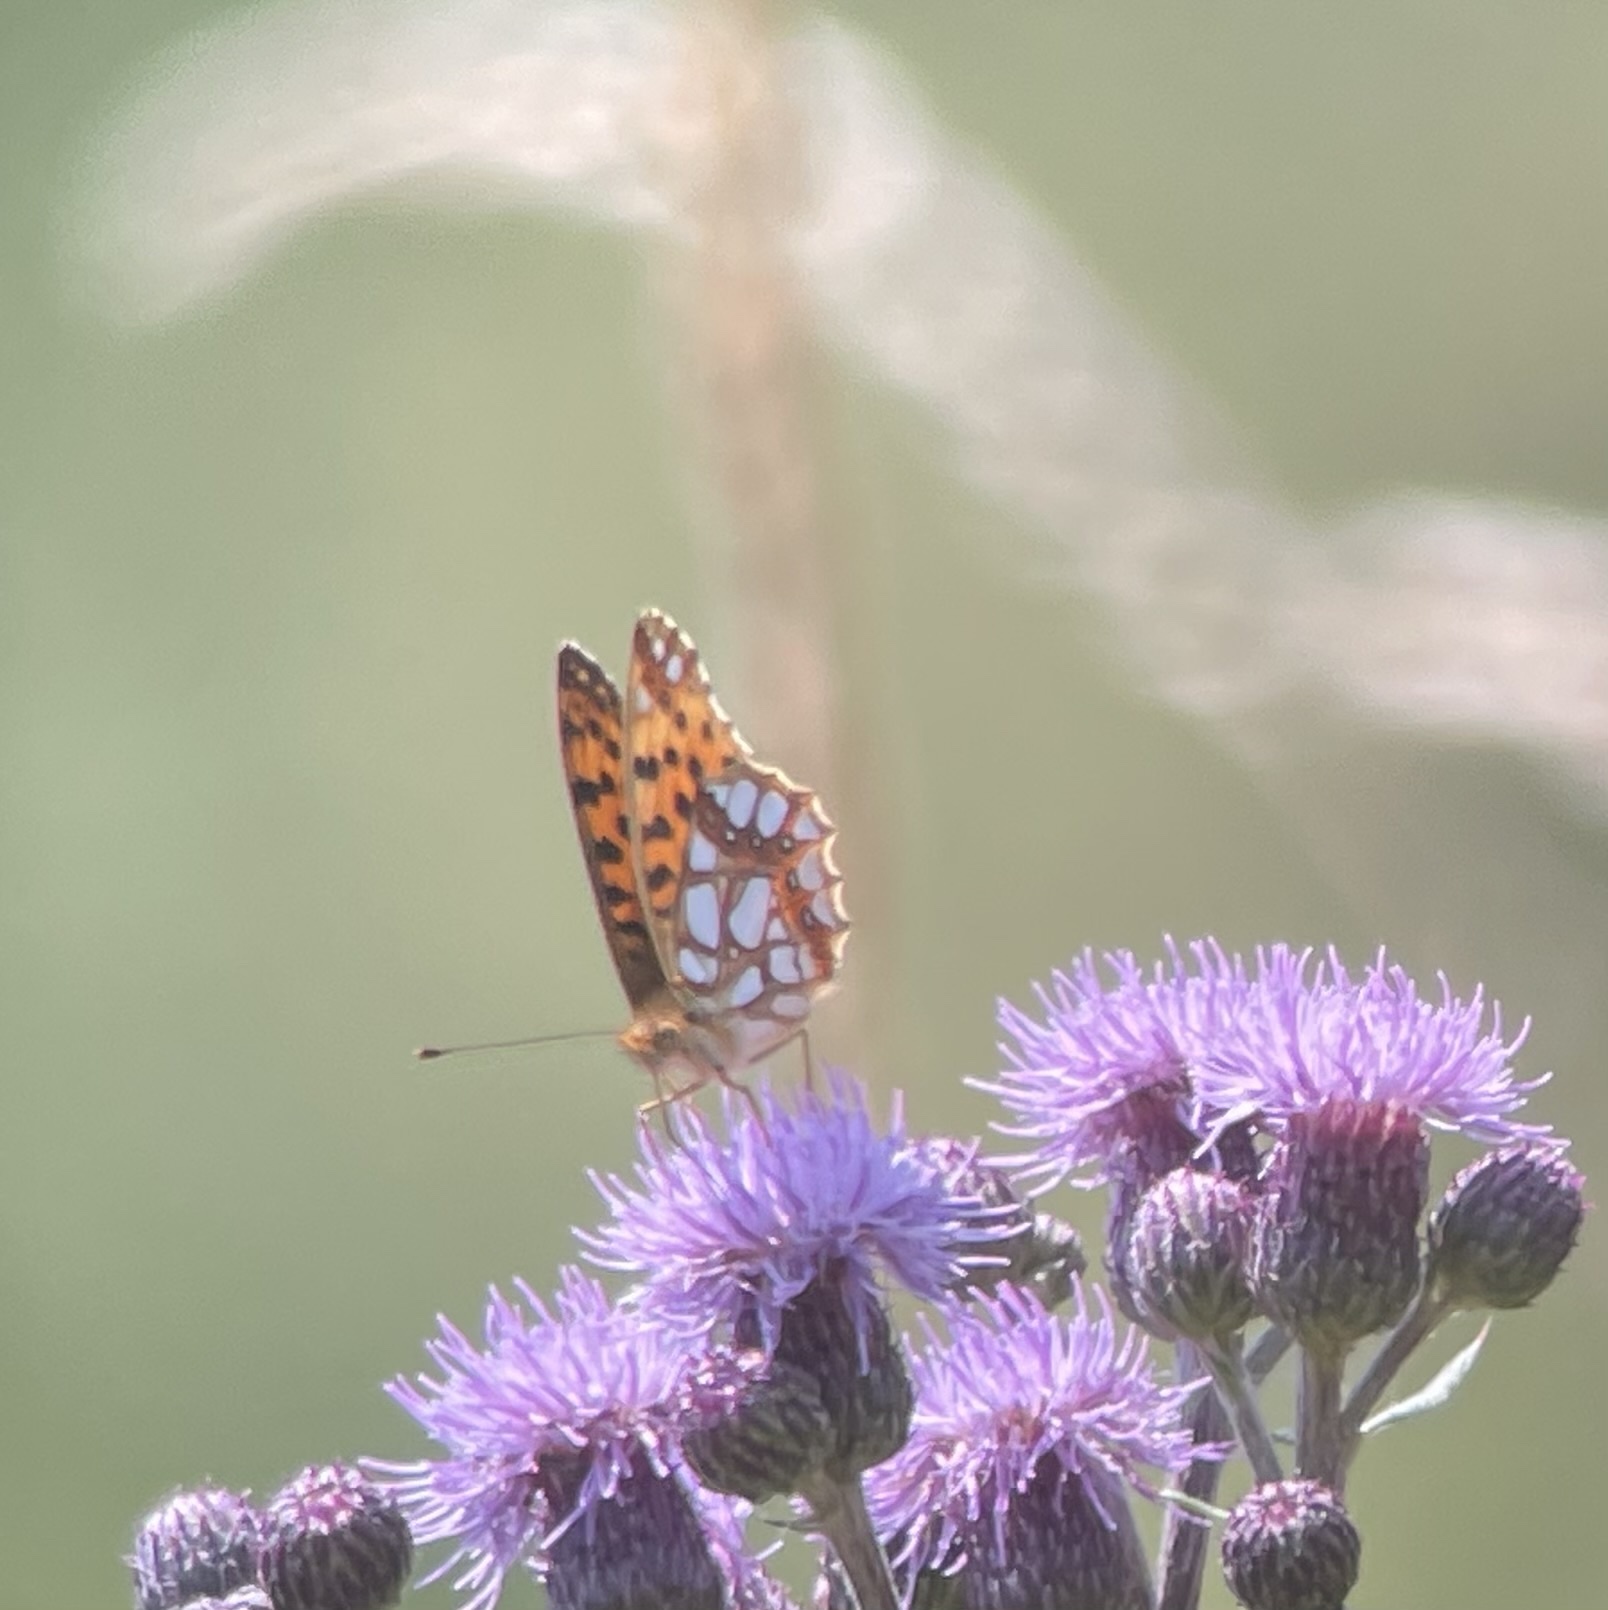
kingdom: Animalia
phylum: Arthropoda
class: Insecta
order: Lepidoptera
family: Nymphalidae
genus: Issoria
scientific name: Issoria lathonia
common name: Queen of spain fritillary
